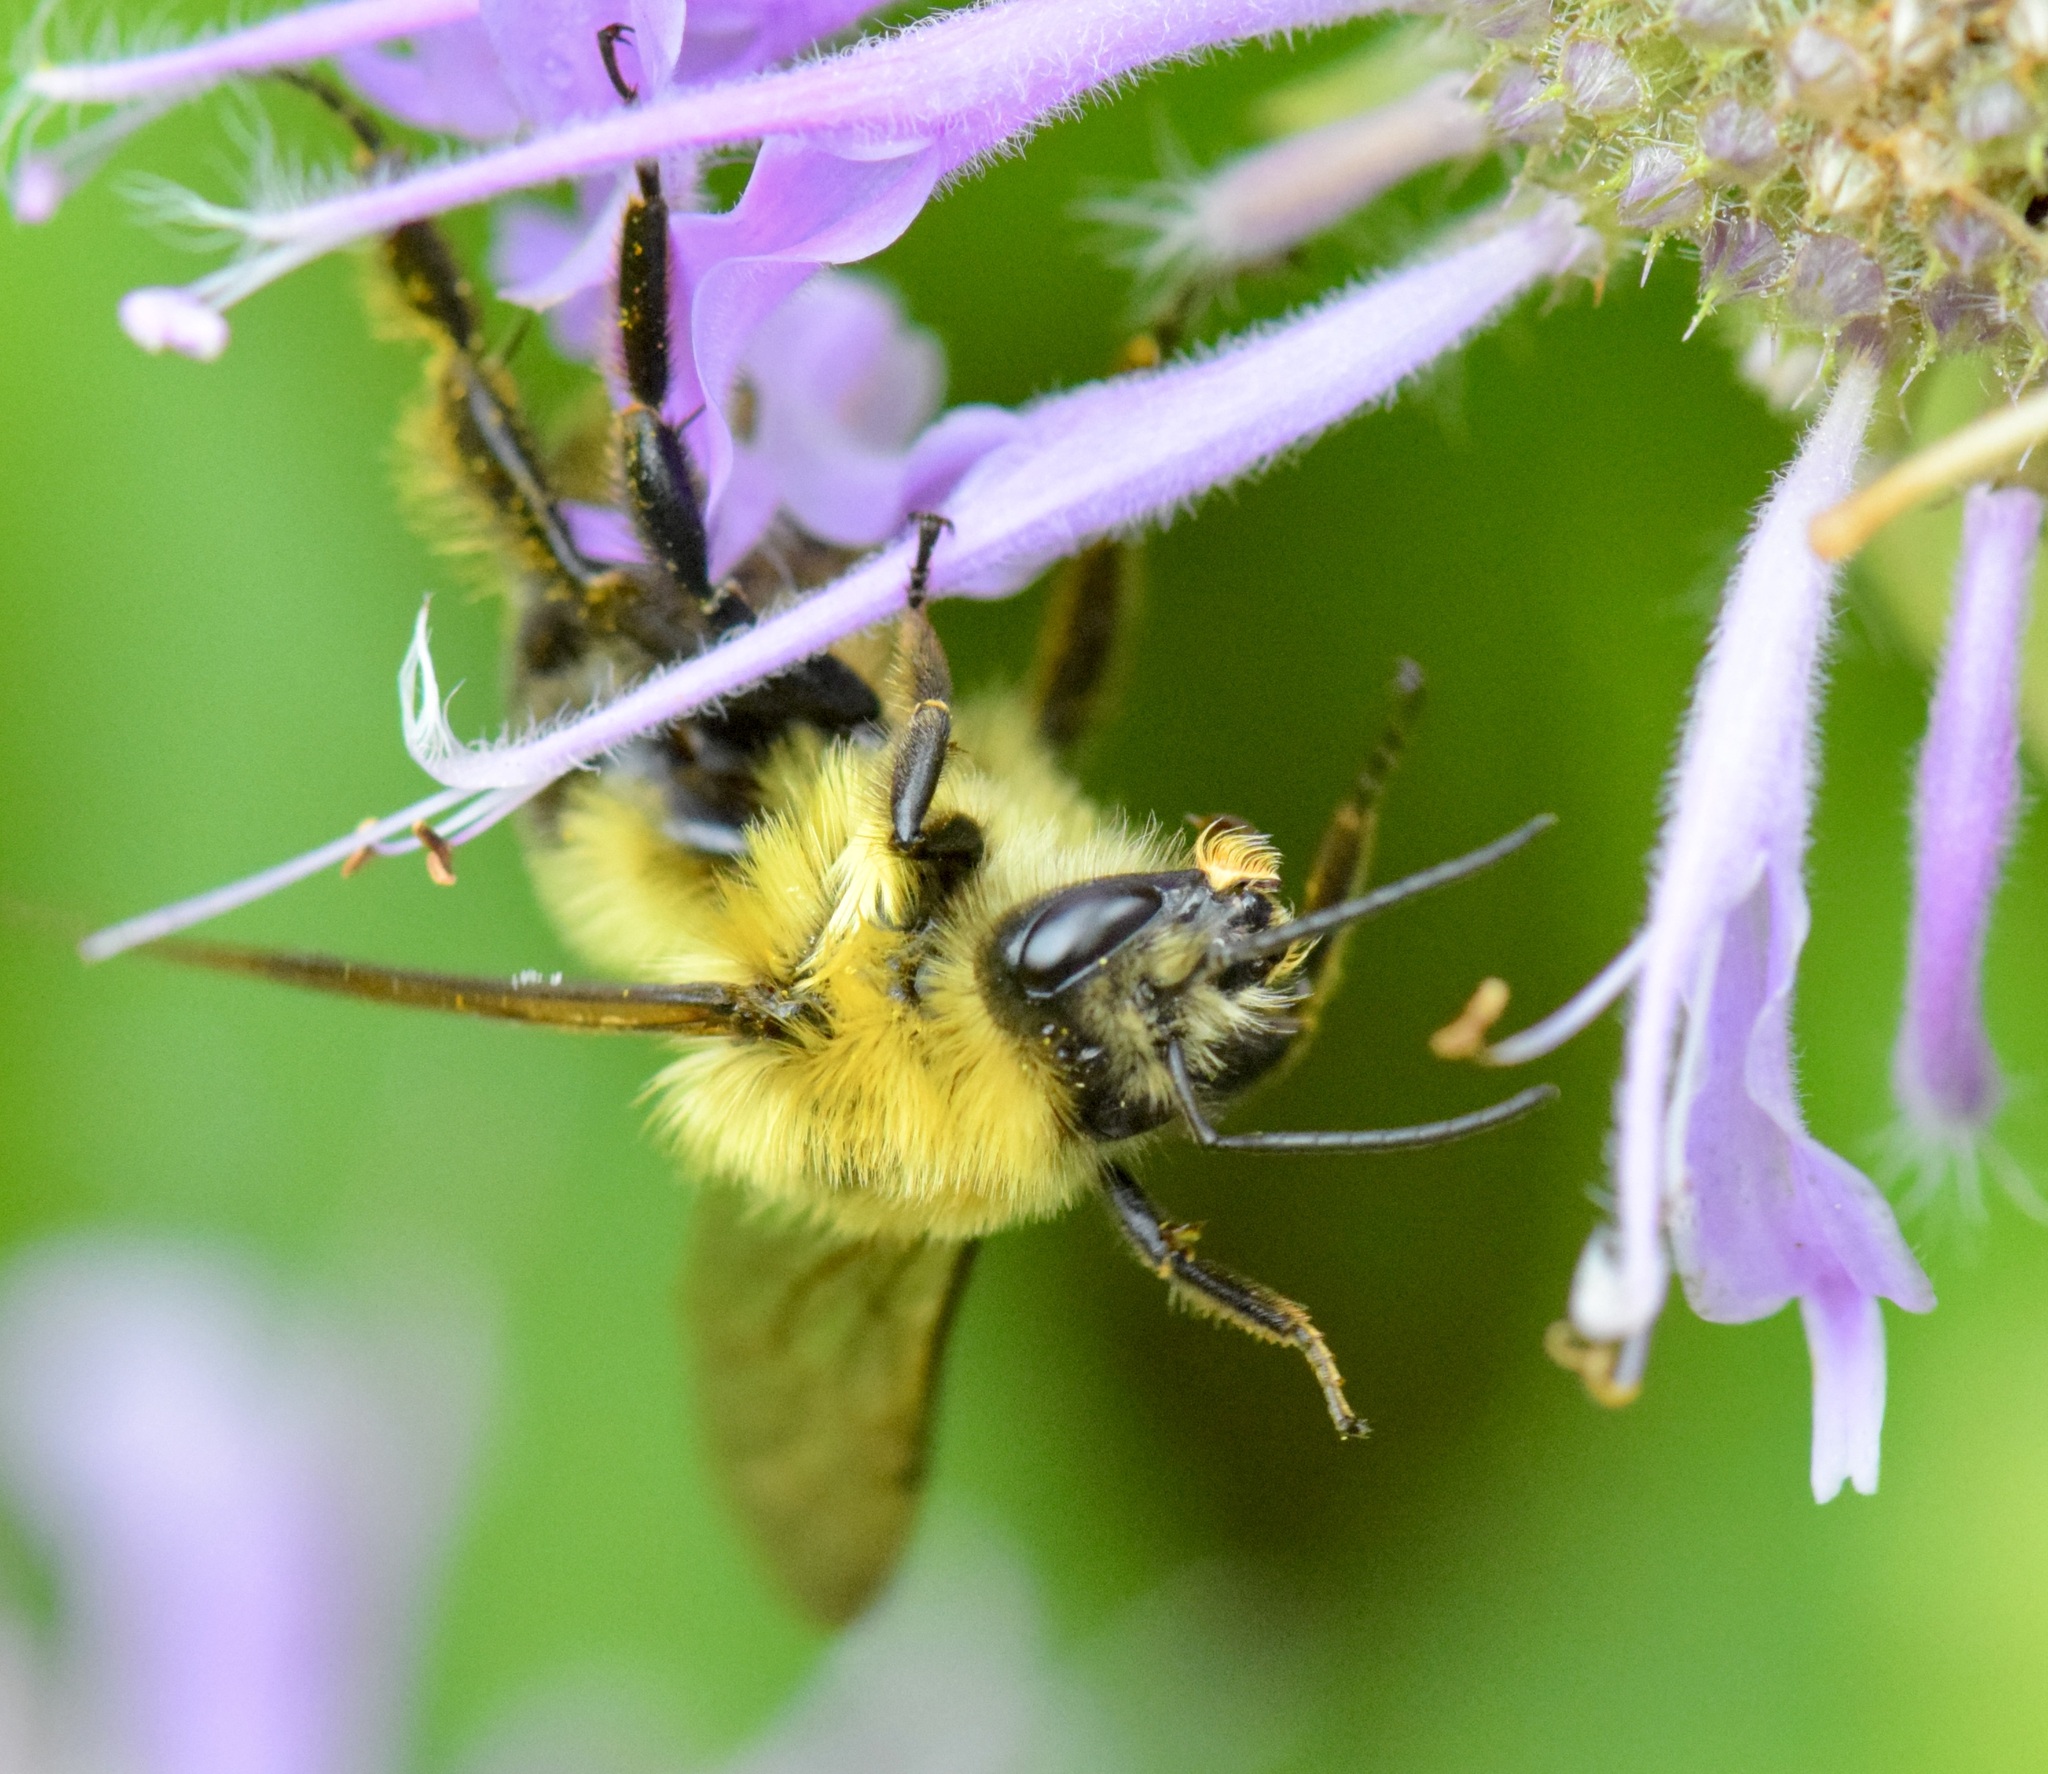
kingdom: Animalia
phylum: Arthropoda
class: Insecta
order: Hymenoptera
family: Apidae
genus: Bombus
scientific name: Bombus bimaculatus
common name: Two-spotted bumble bee
